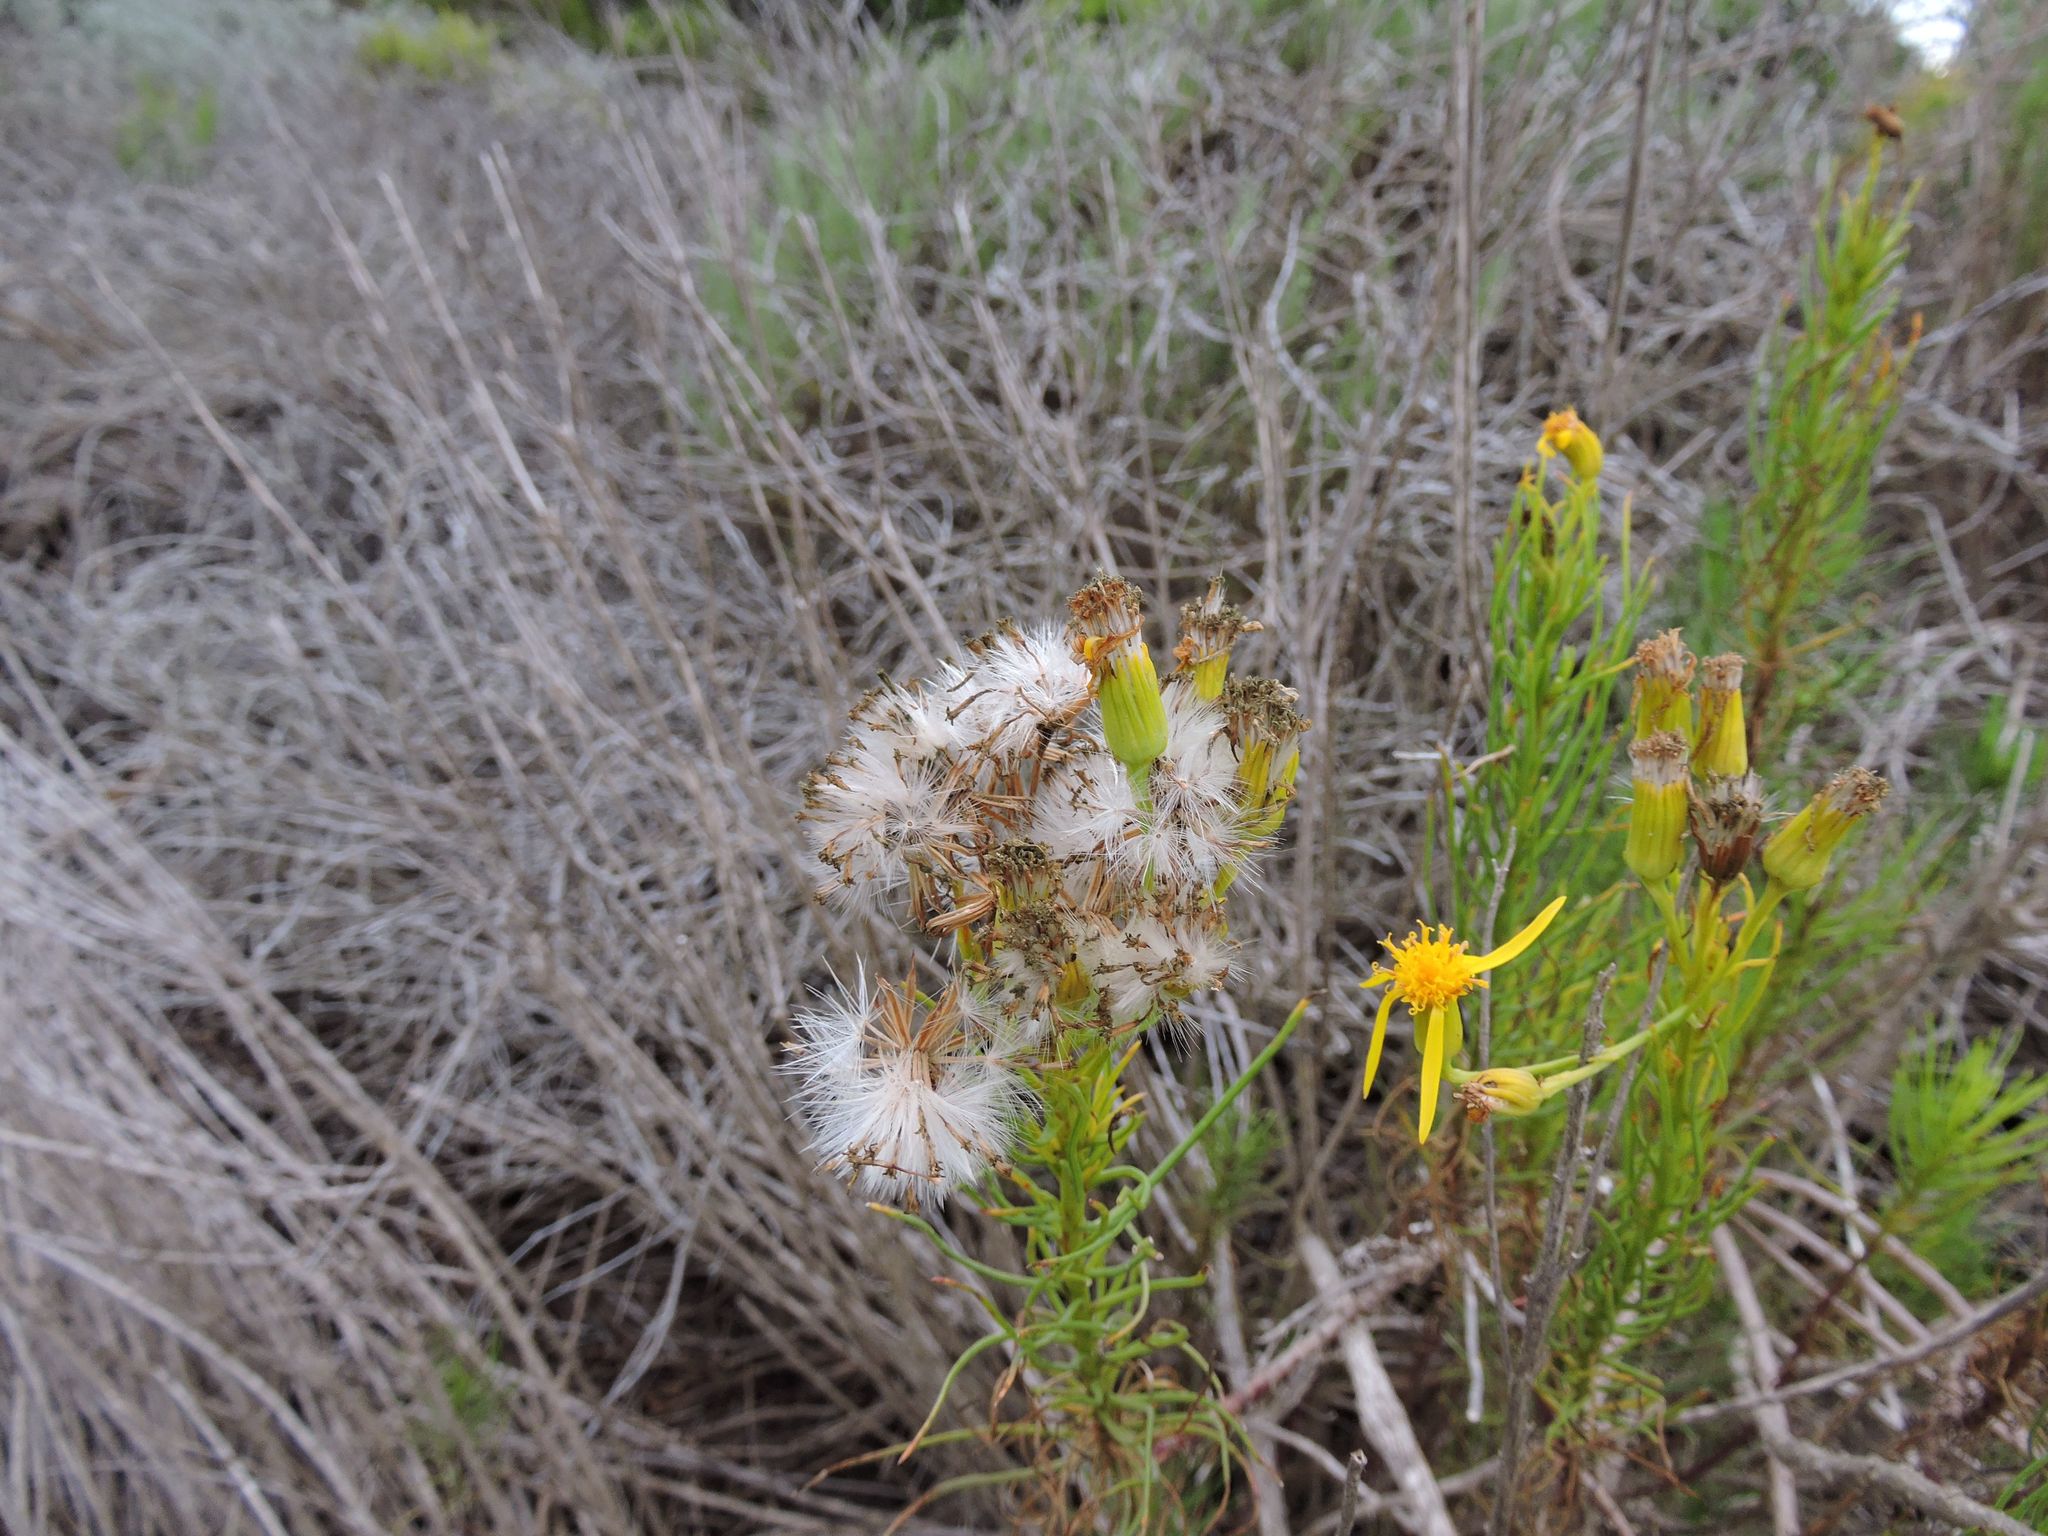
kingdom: Plantae
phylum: Tracheophyta
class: Magnoliopsida
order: Asterales
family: Asteraceae
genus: Senecio
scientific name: Senecio blochmaniae
